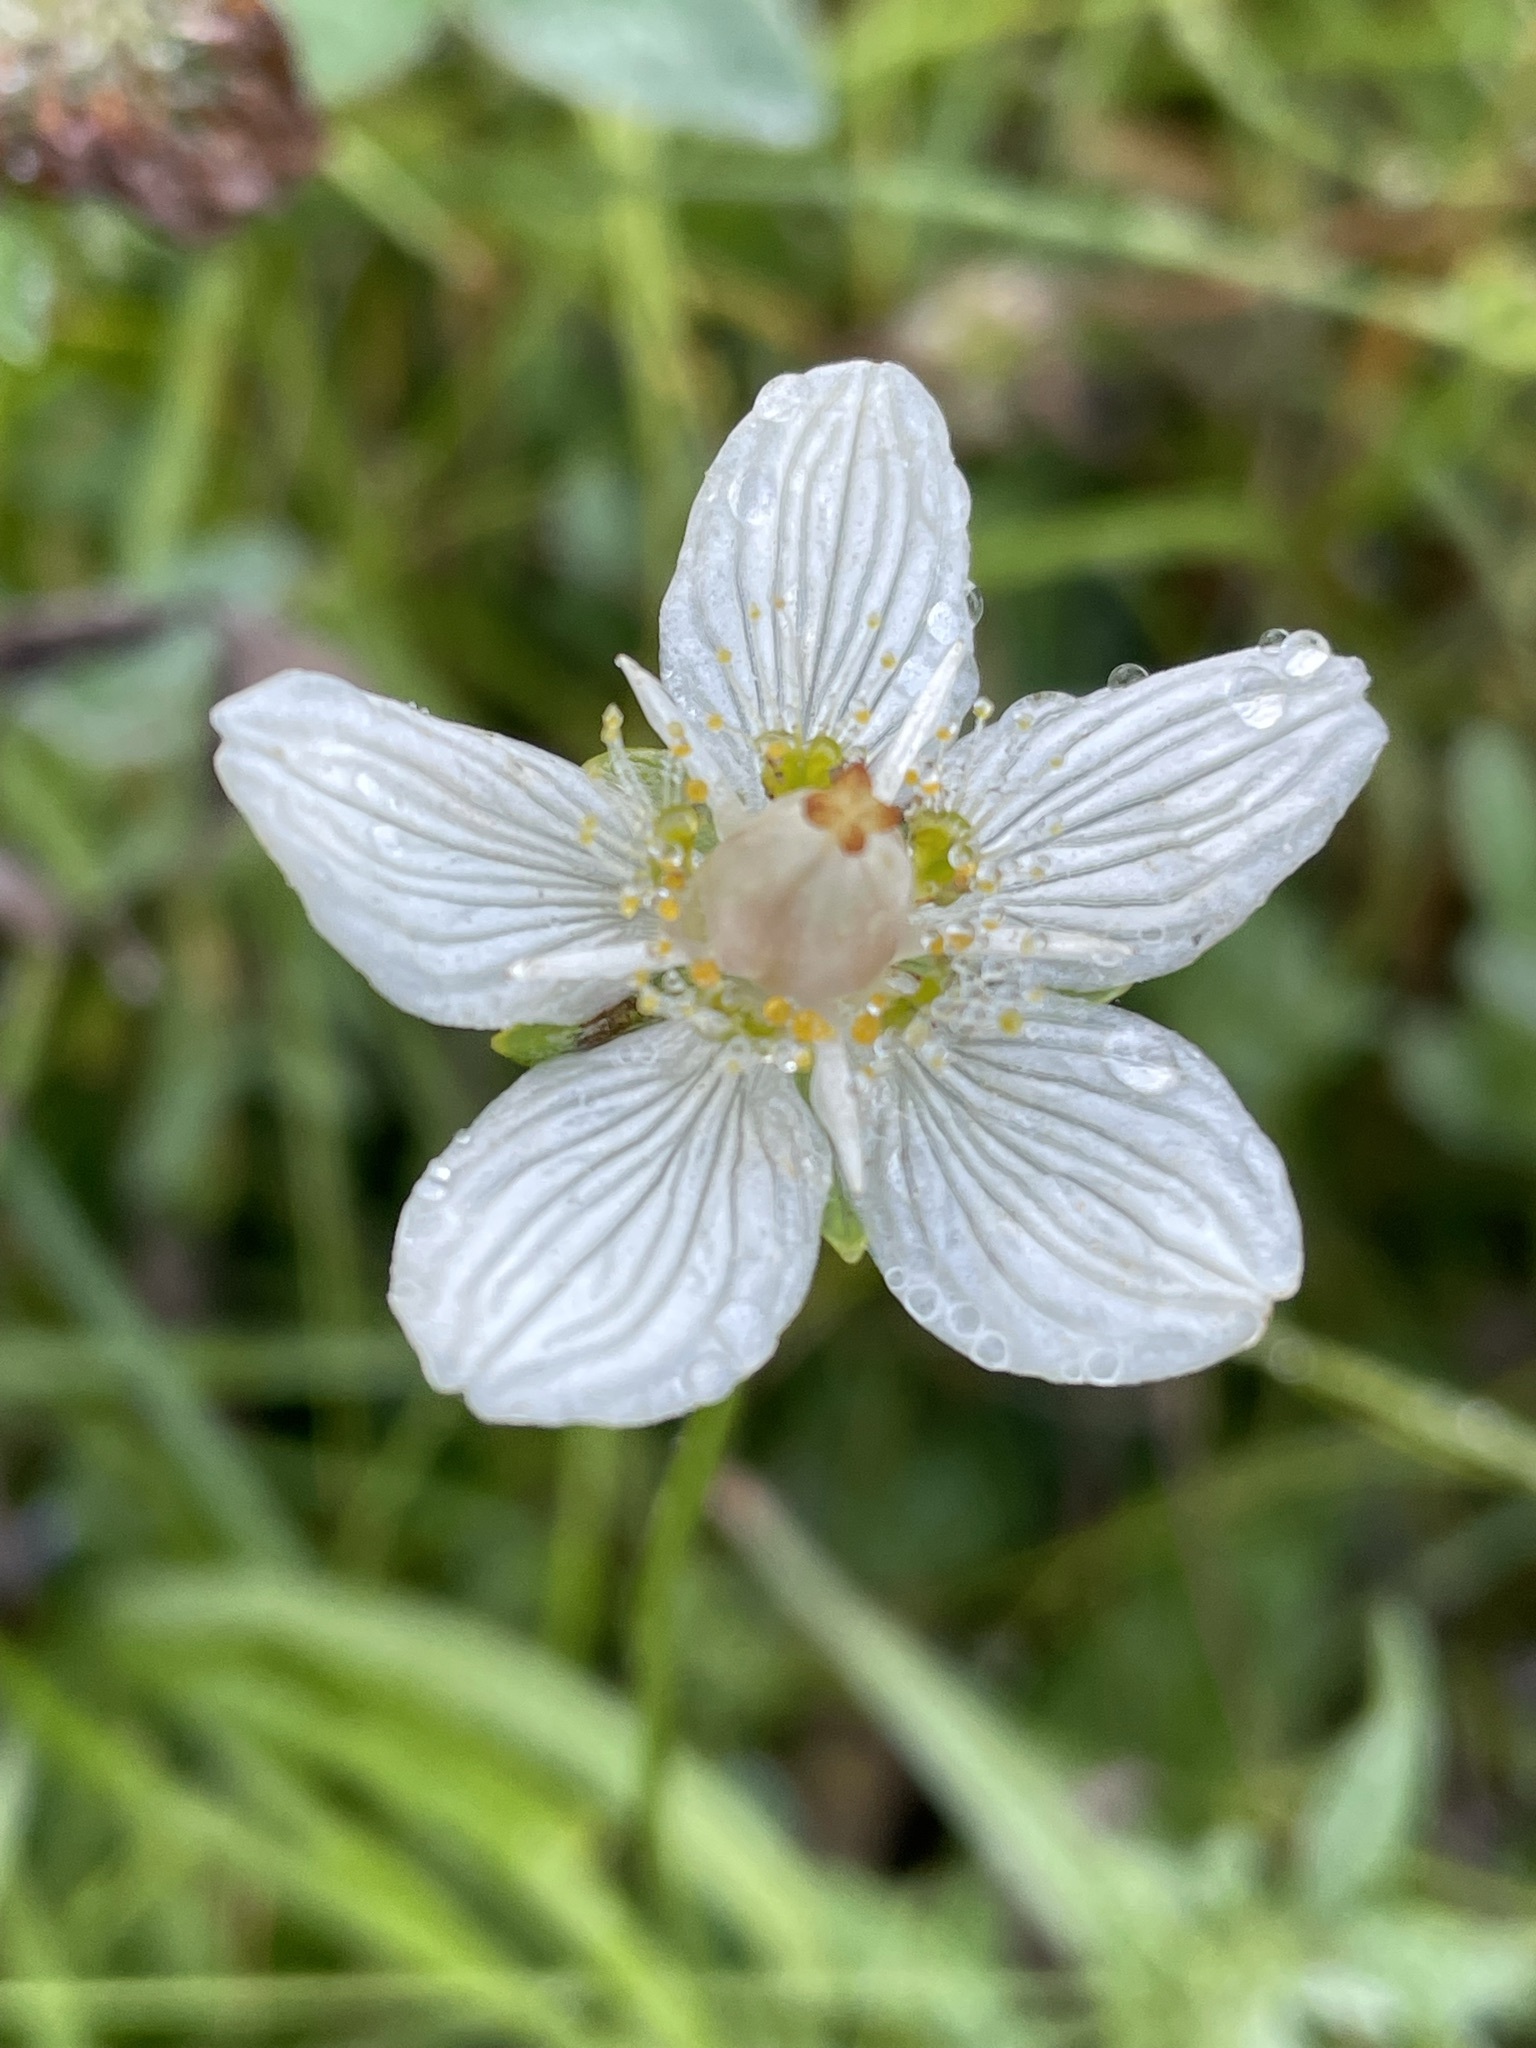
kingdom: Plantae
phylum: Tracheophyta
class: Magnoliopsida
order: Celastrales
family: Parnassiaceae
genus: Parnassia
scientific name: Parnassia palustris
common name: Grass-of-parnassus
